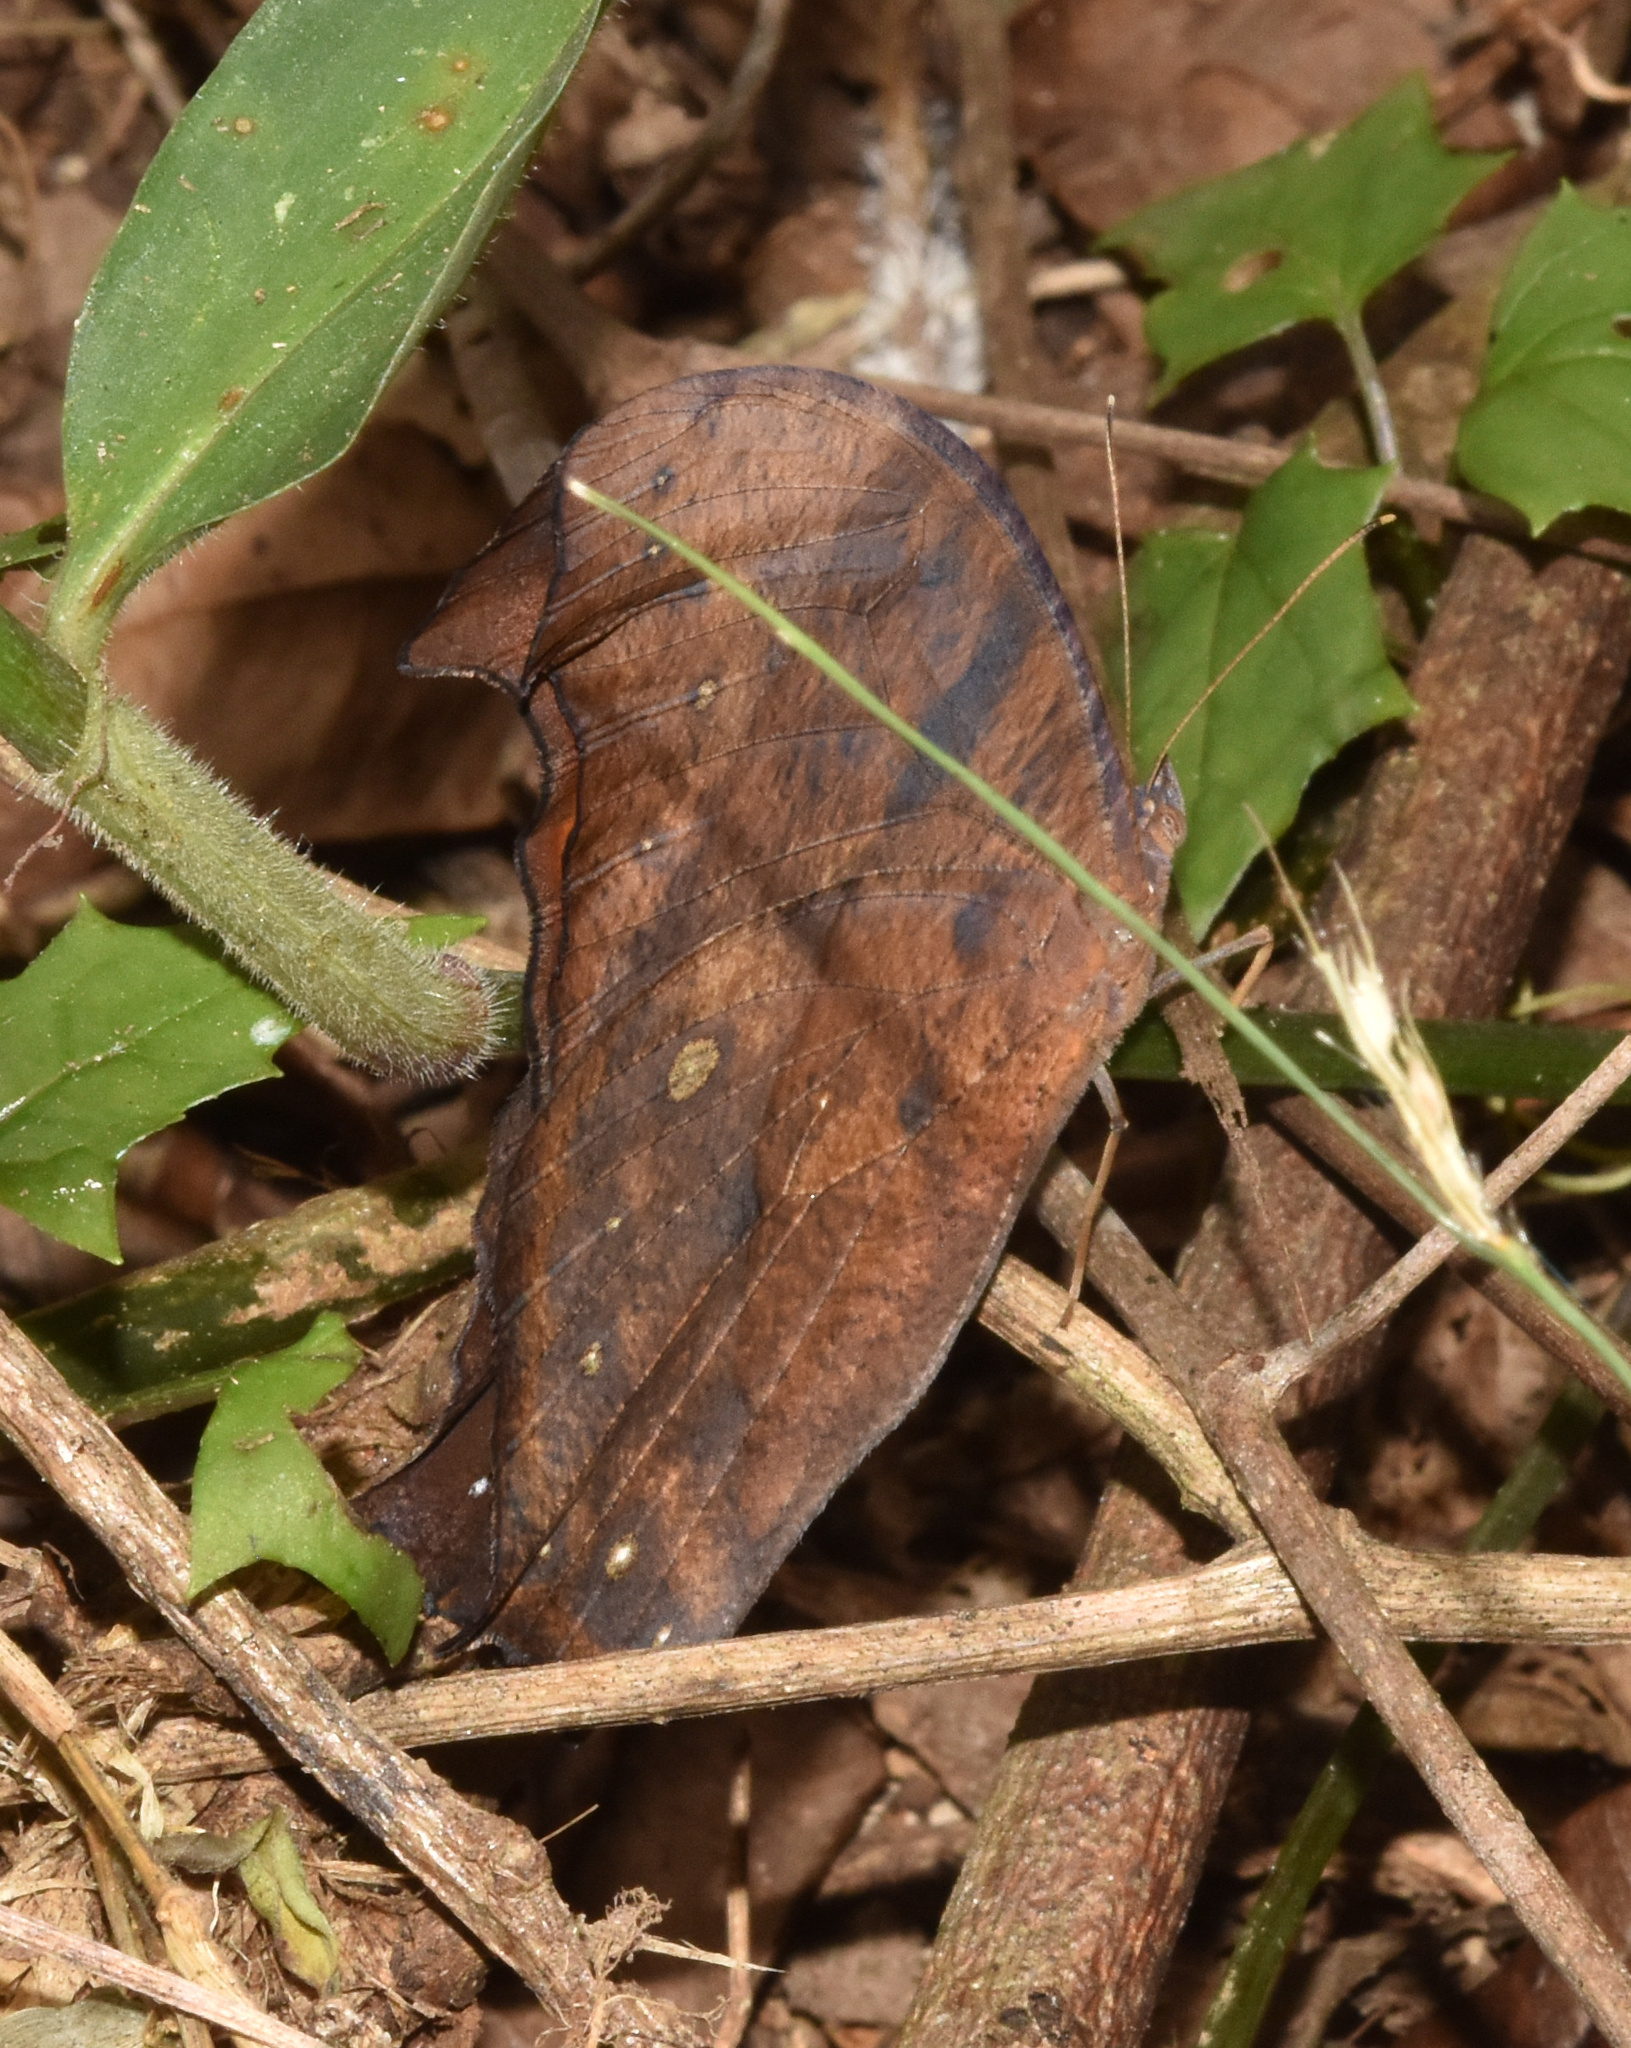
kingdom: Animalia
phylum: Arthropoda
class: Insecta
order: Lepidoptera
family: Nymphalidae
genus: Melanitis
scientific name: Melanitis leda
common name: Twilight brown
